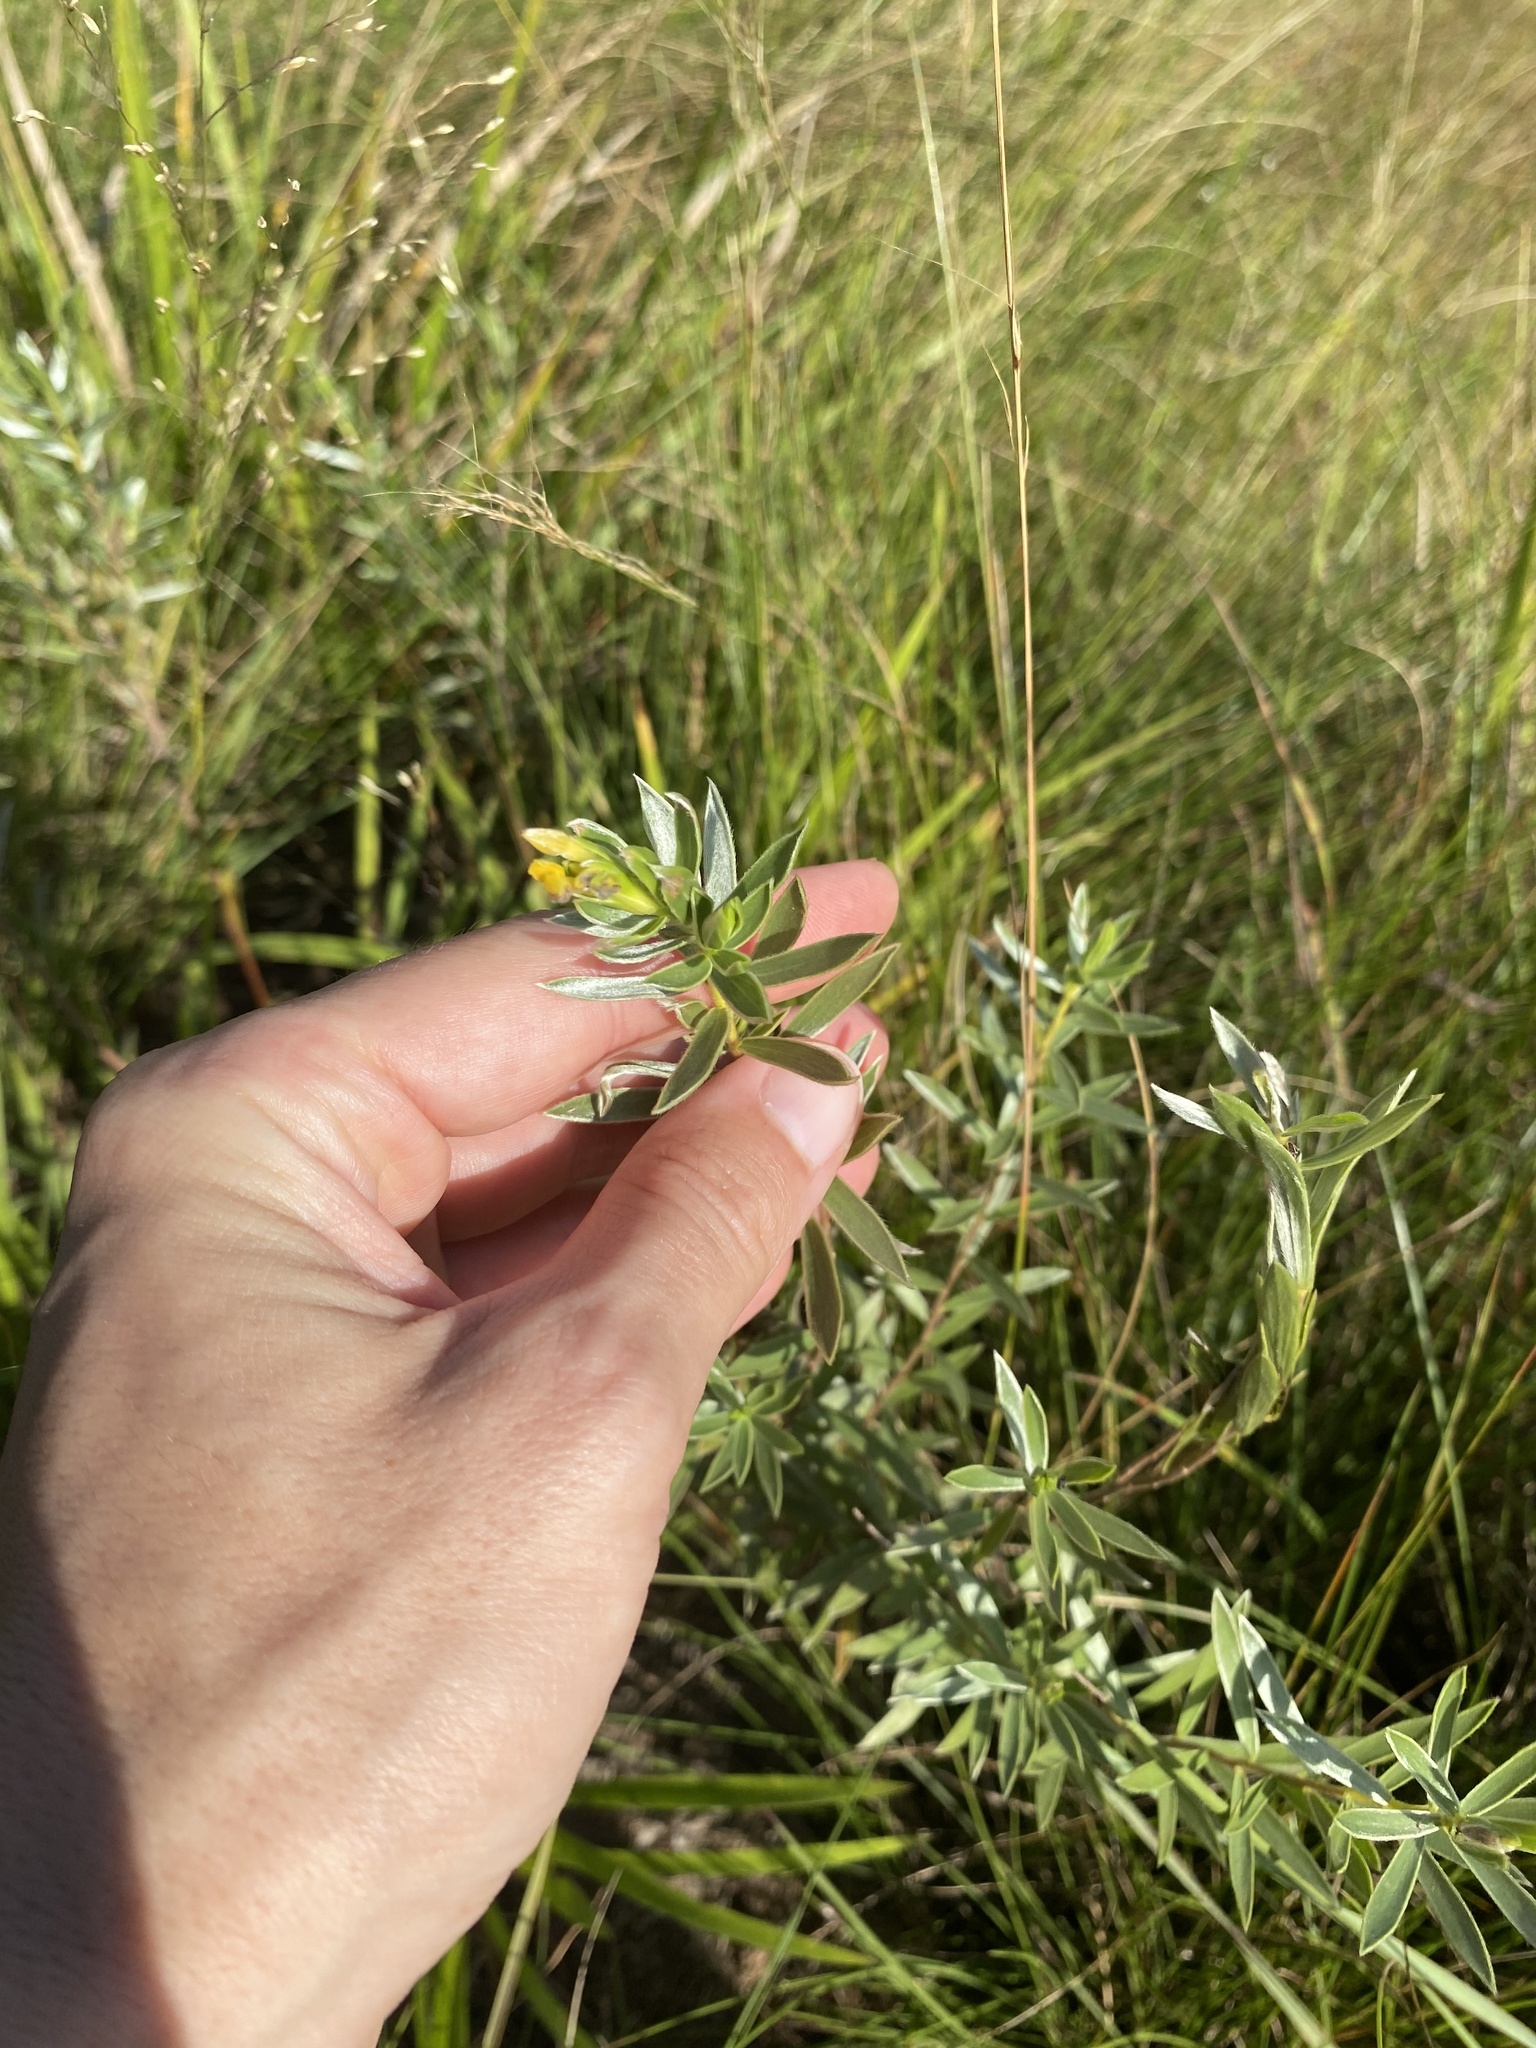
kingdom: Plantae
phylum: Tracheophyta
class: Magnoliopsida
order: Malvales
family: Thymelaeaceae
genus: Gnidia
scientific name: Gnidia splendens
